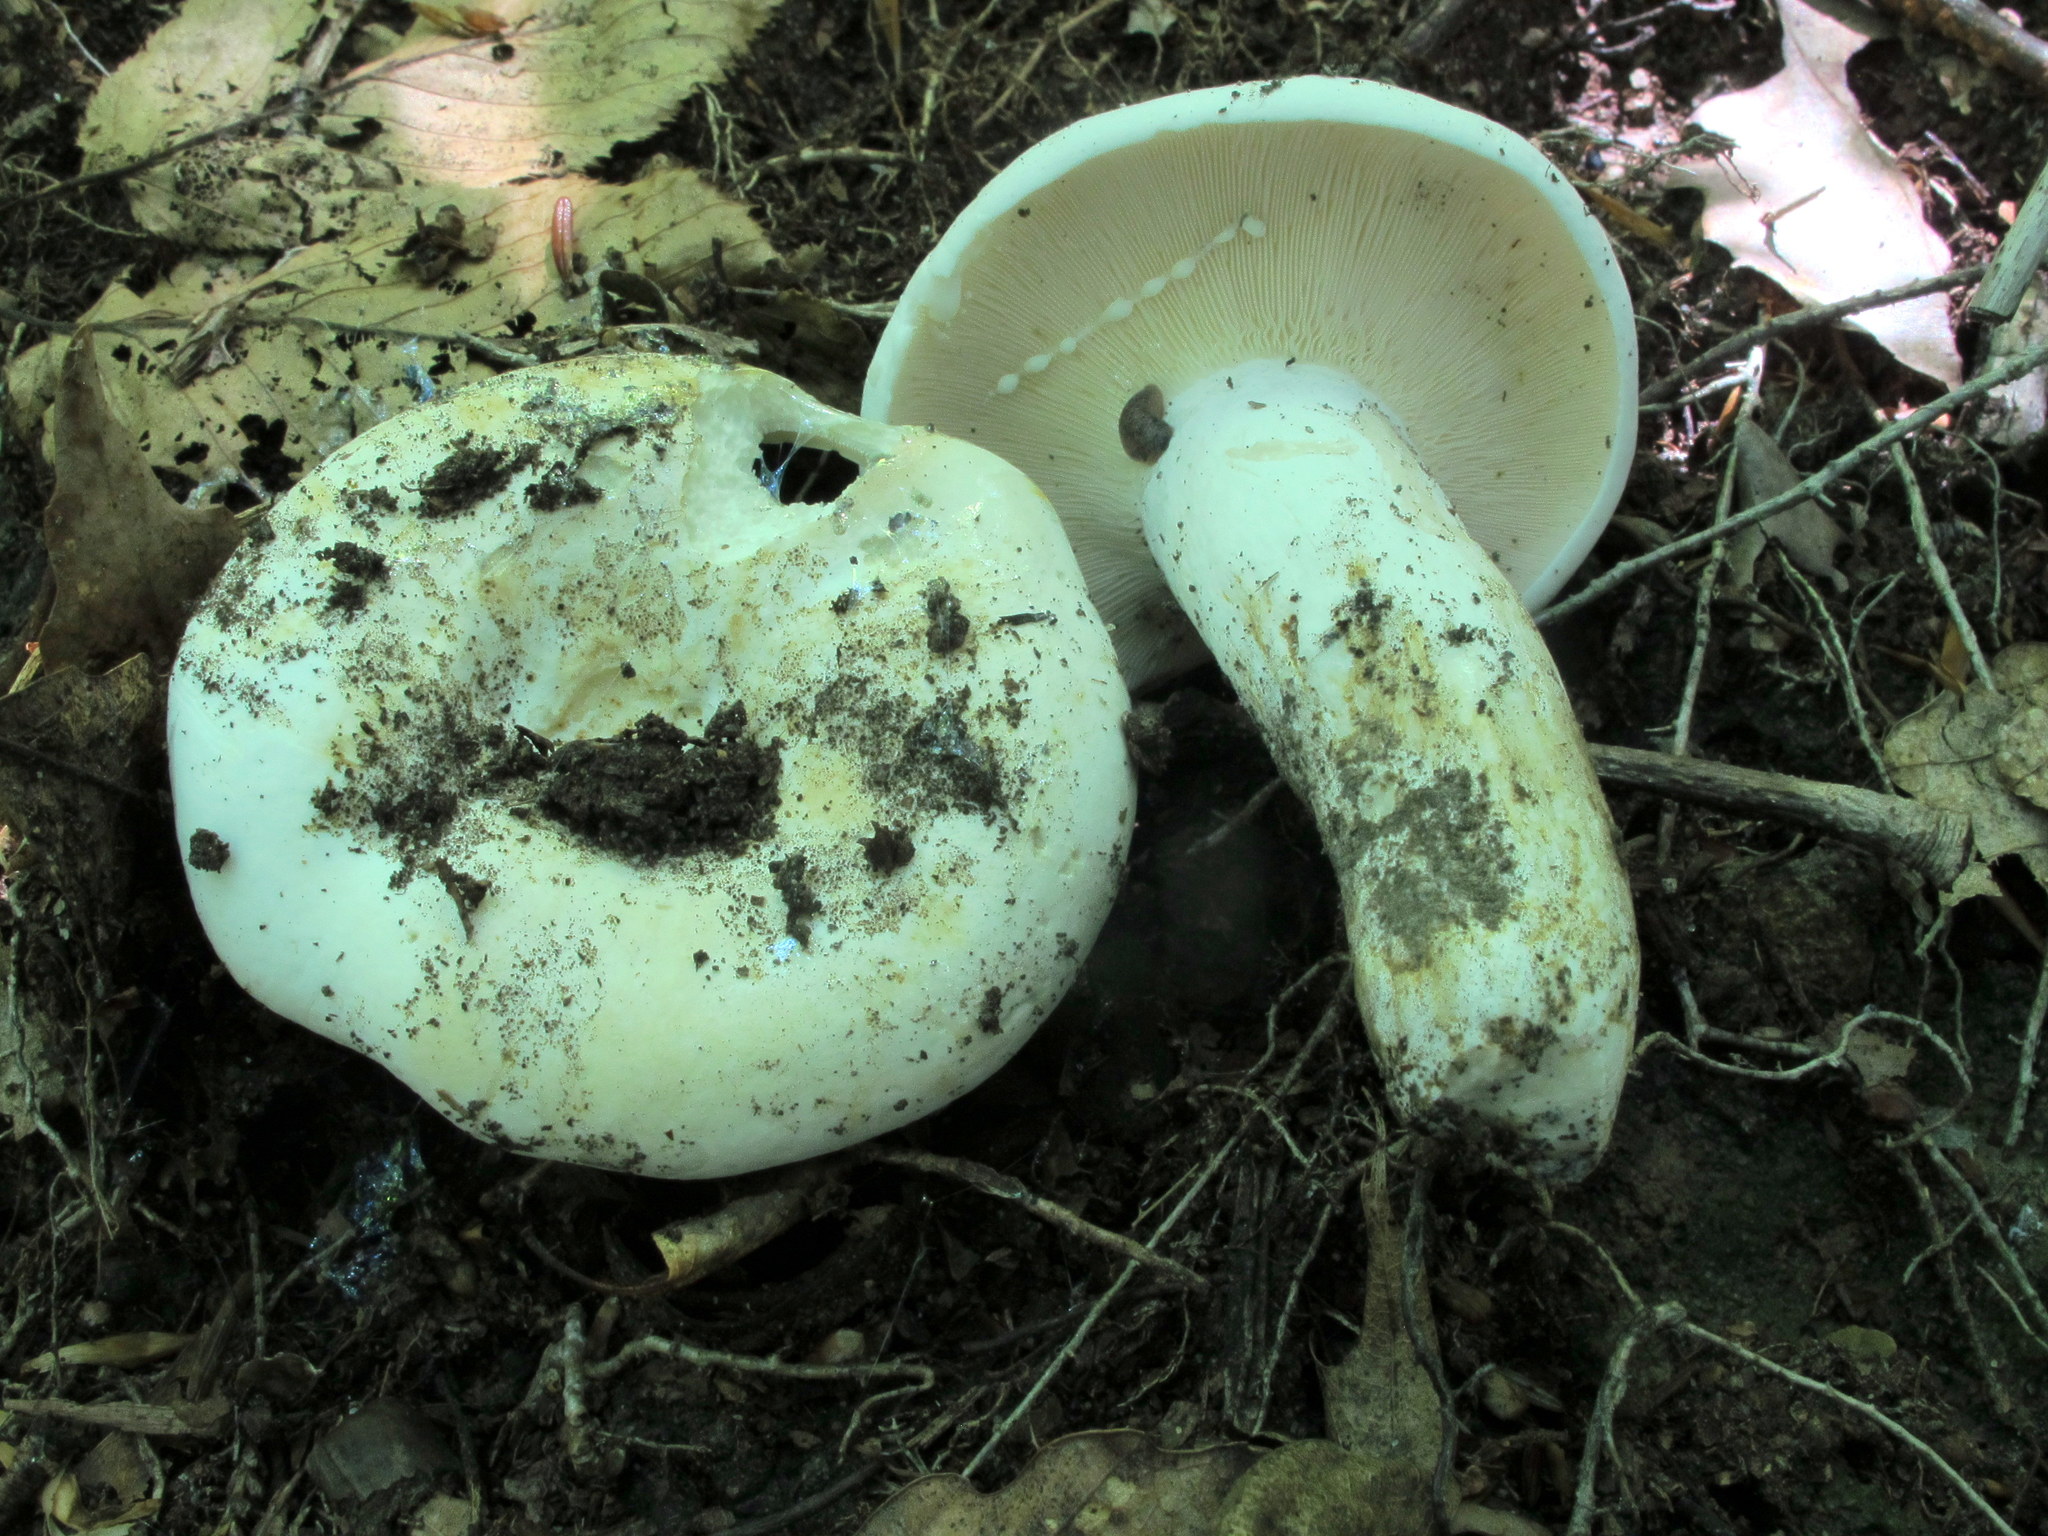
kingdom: Fungi
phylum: Basidiomycota
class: Agaricomycetes
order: Russulales
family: Russulaceae
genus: Lactifluus
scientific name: Lactifluus piperatus
